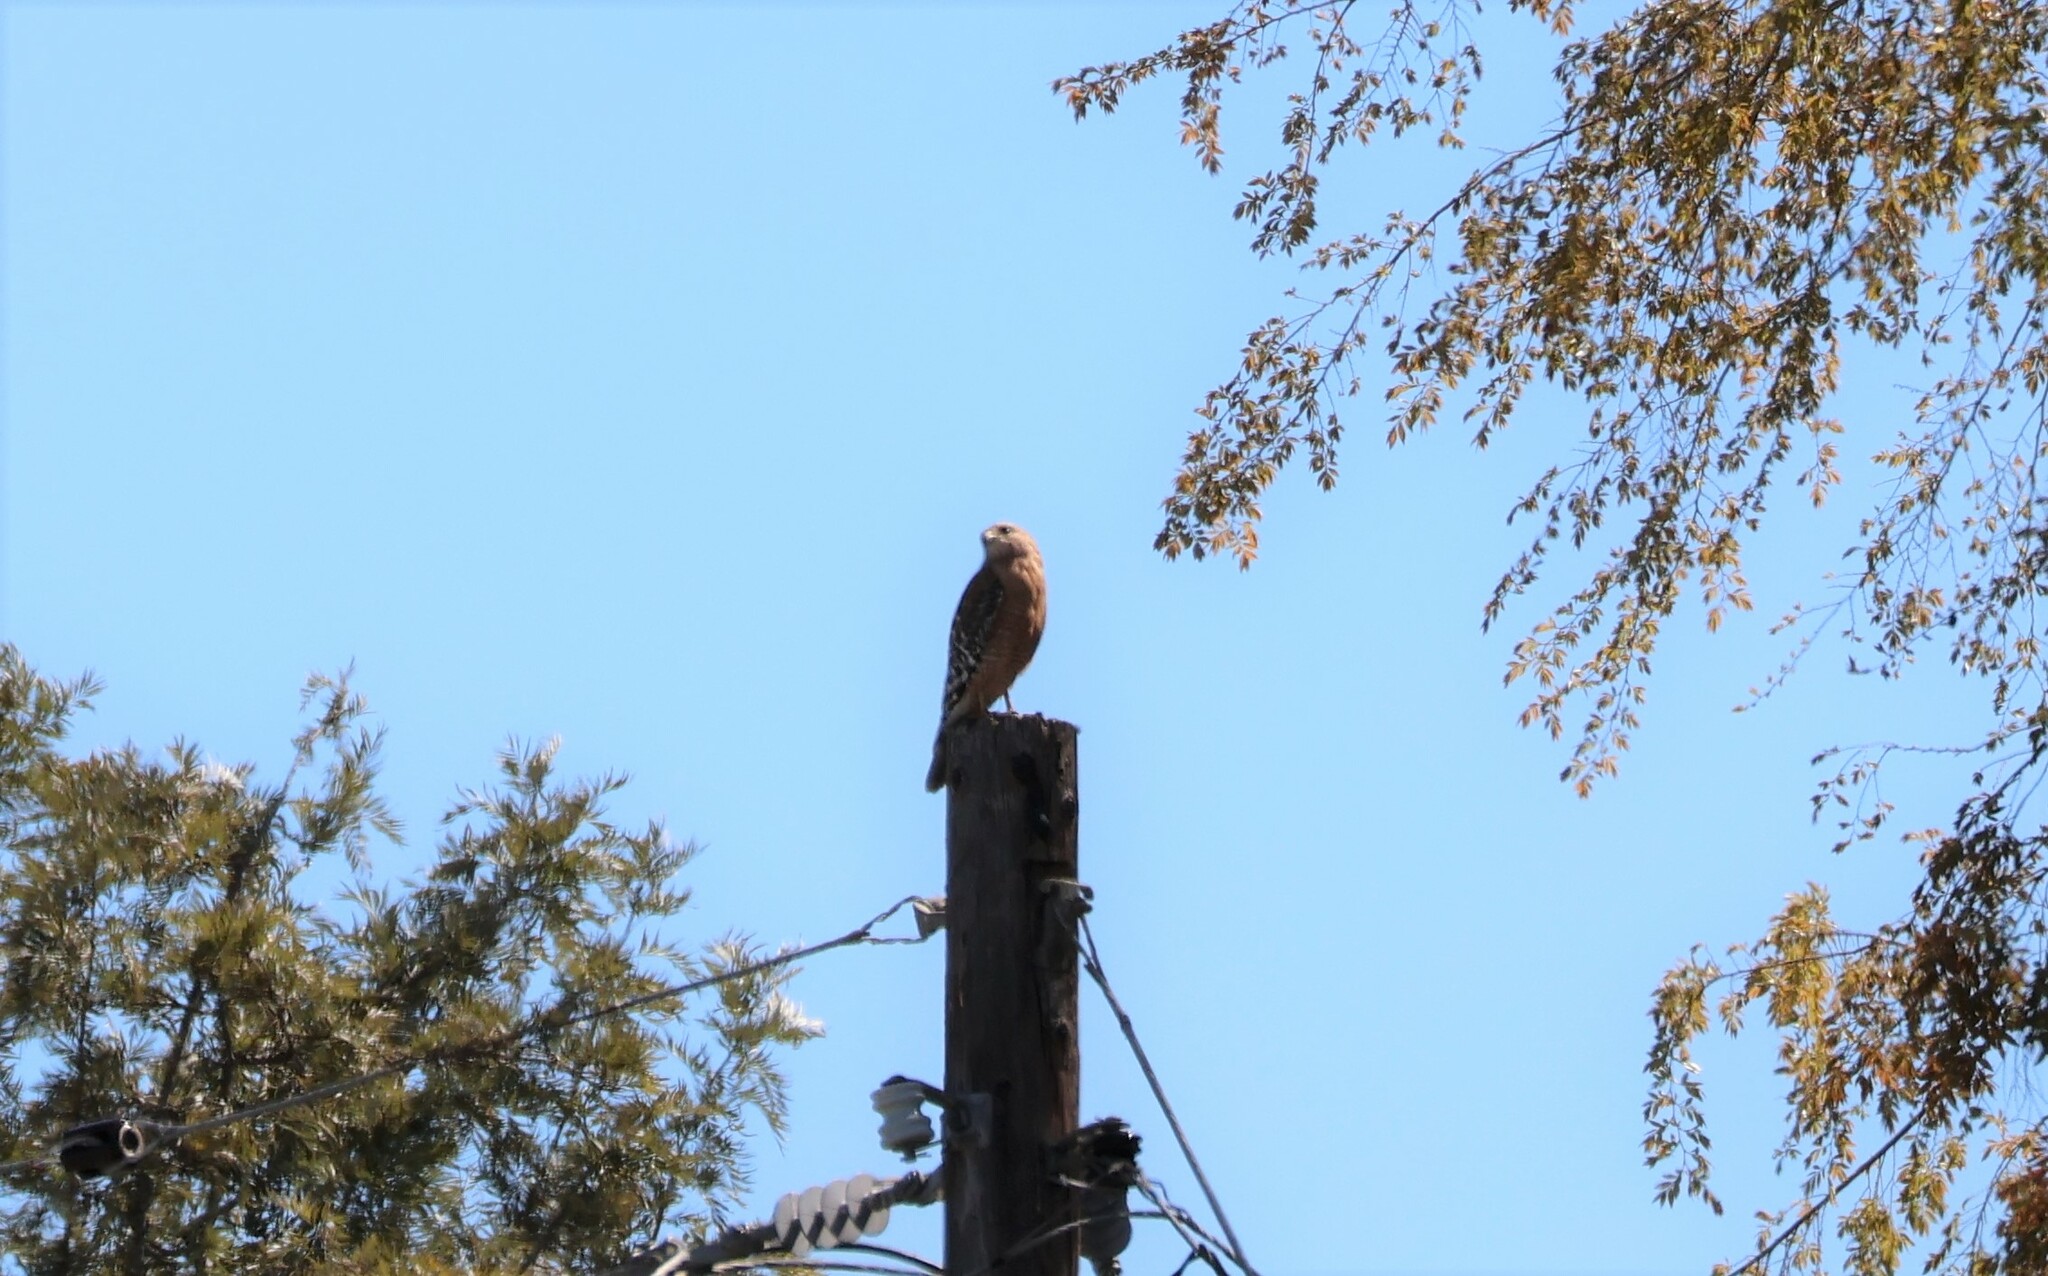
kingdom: Animalia
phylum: Chordata
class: Aves
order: Accipitriformes
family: Accipitridae
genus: Buteo
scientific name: Buteo lineatus
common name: Red-shouldered hawk
